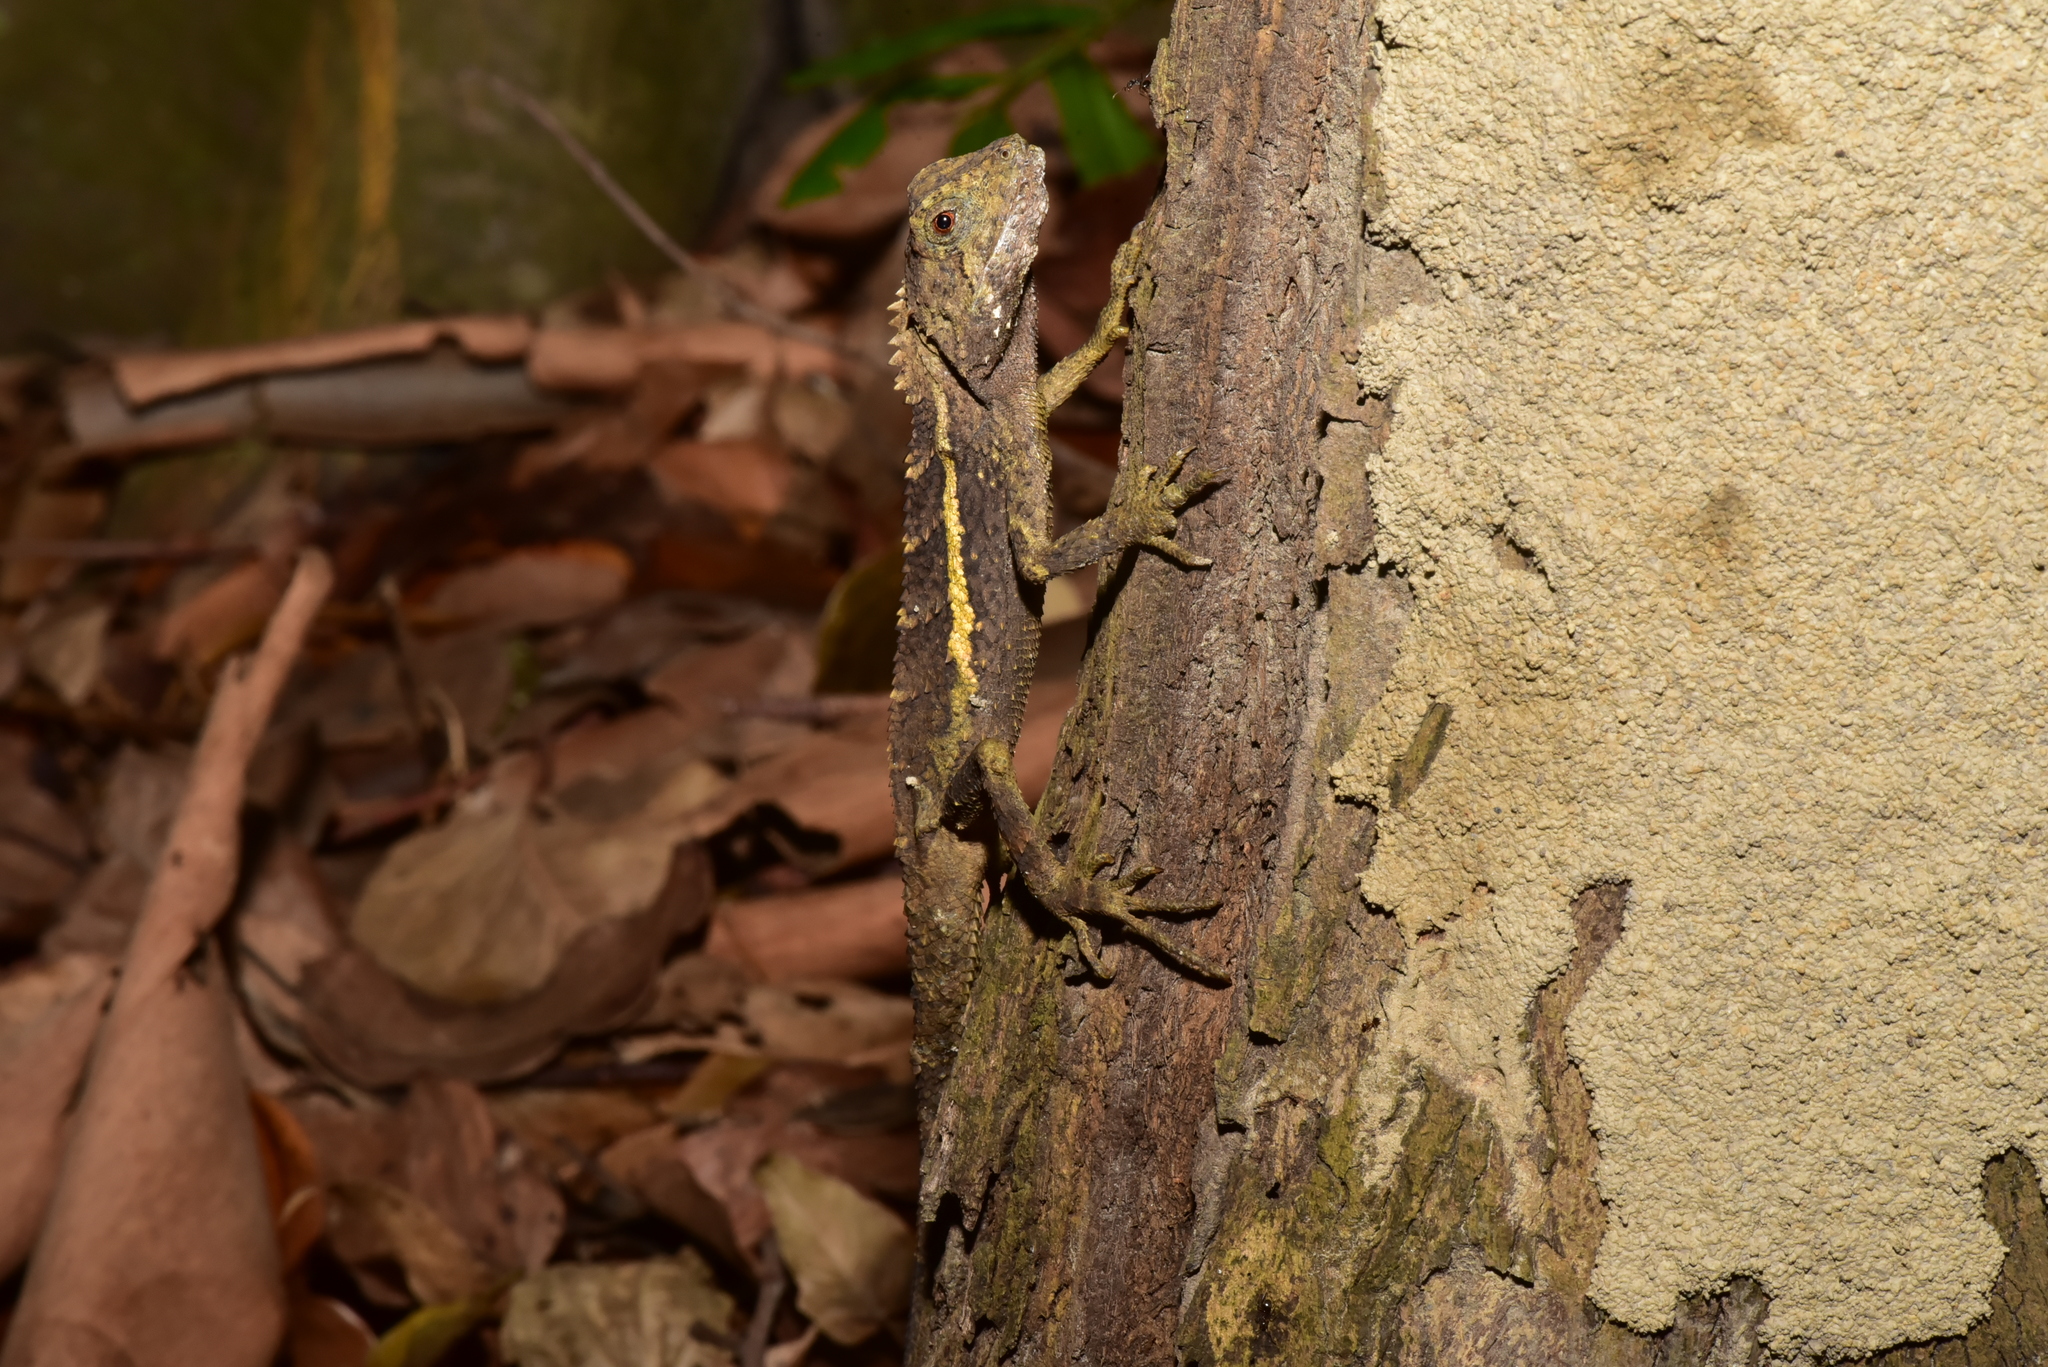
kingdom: Animalia
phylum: Chordata
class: Squamata
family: Agamidae
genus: Diploderma
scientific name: Diploderma swinhonis
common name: Taiwan japalure
